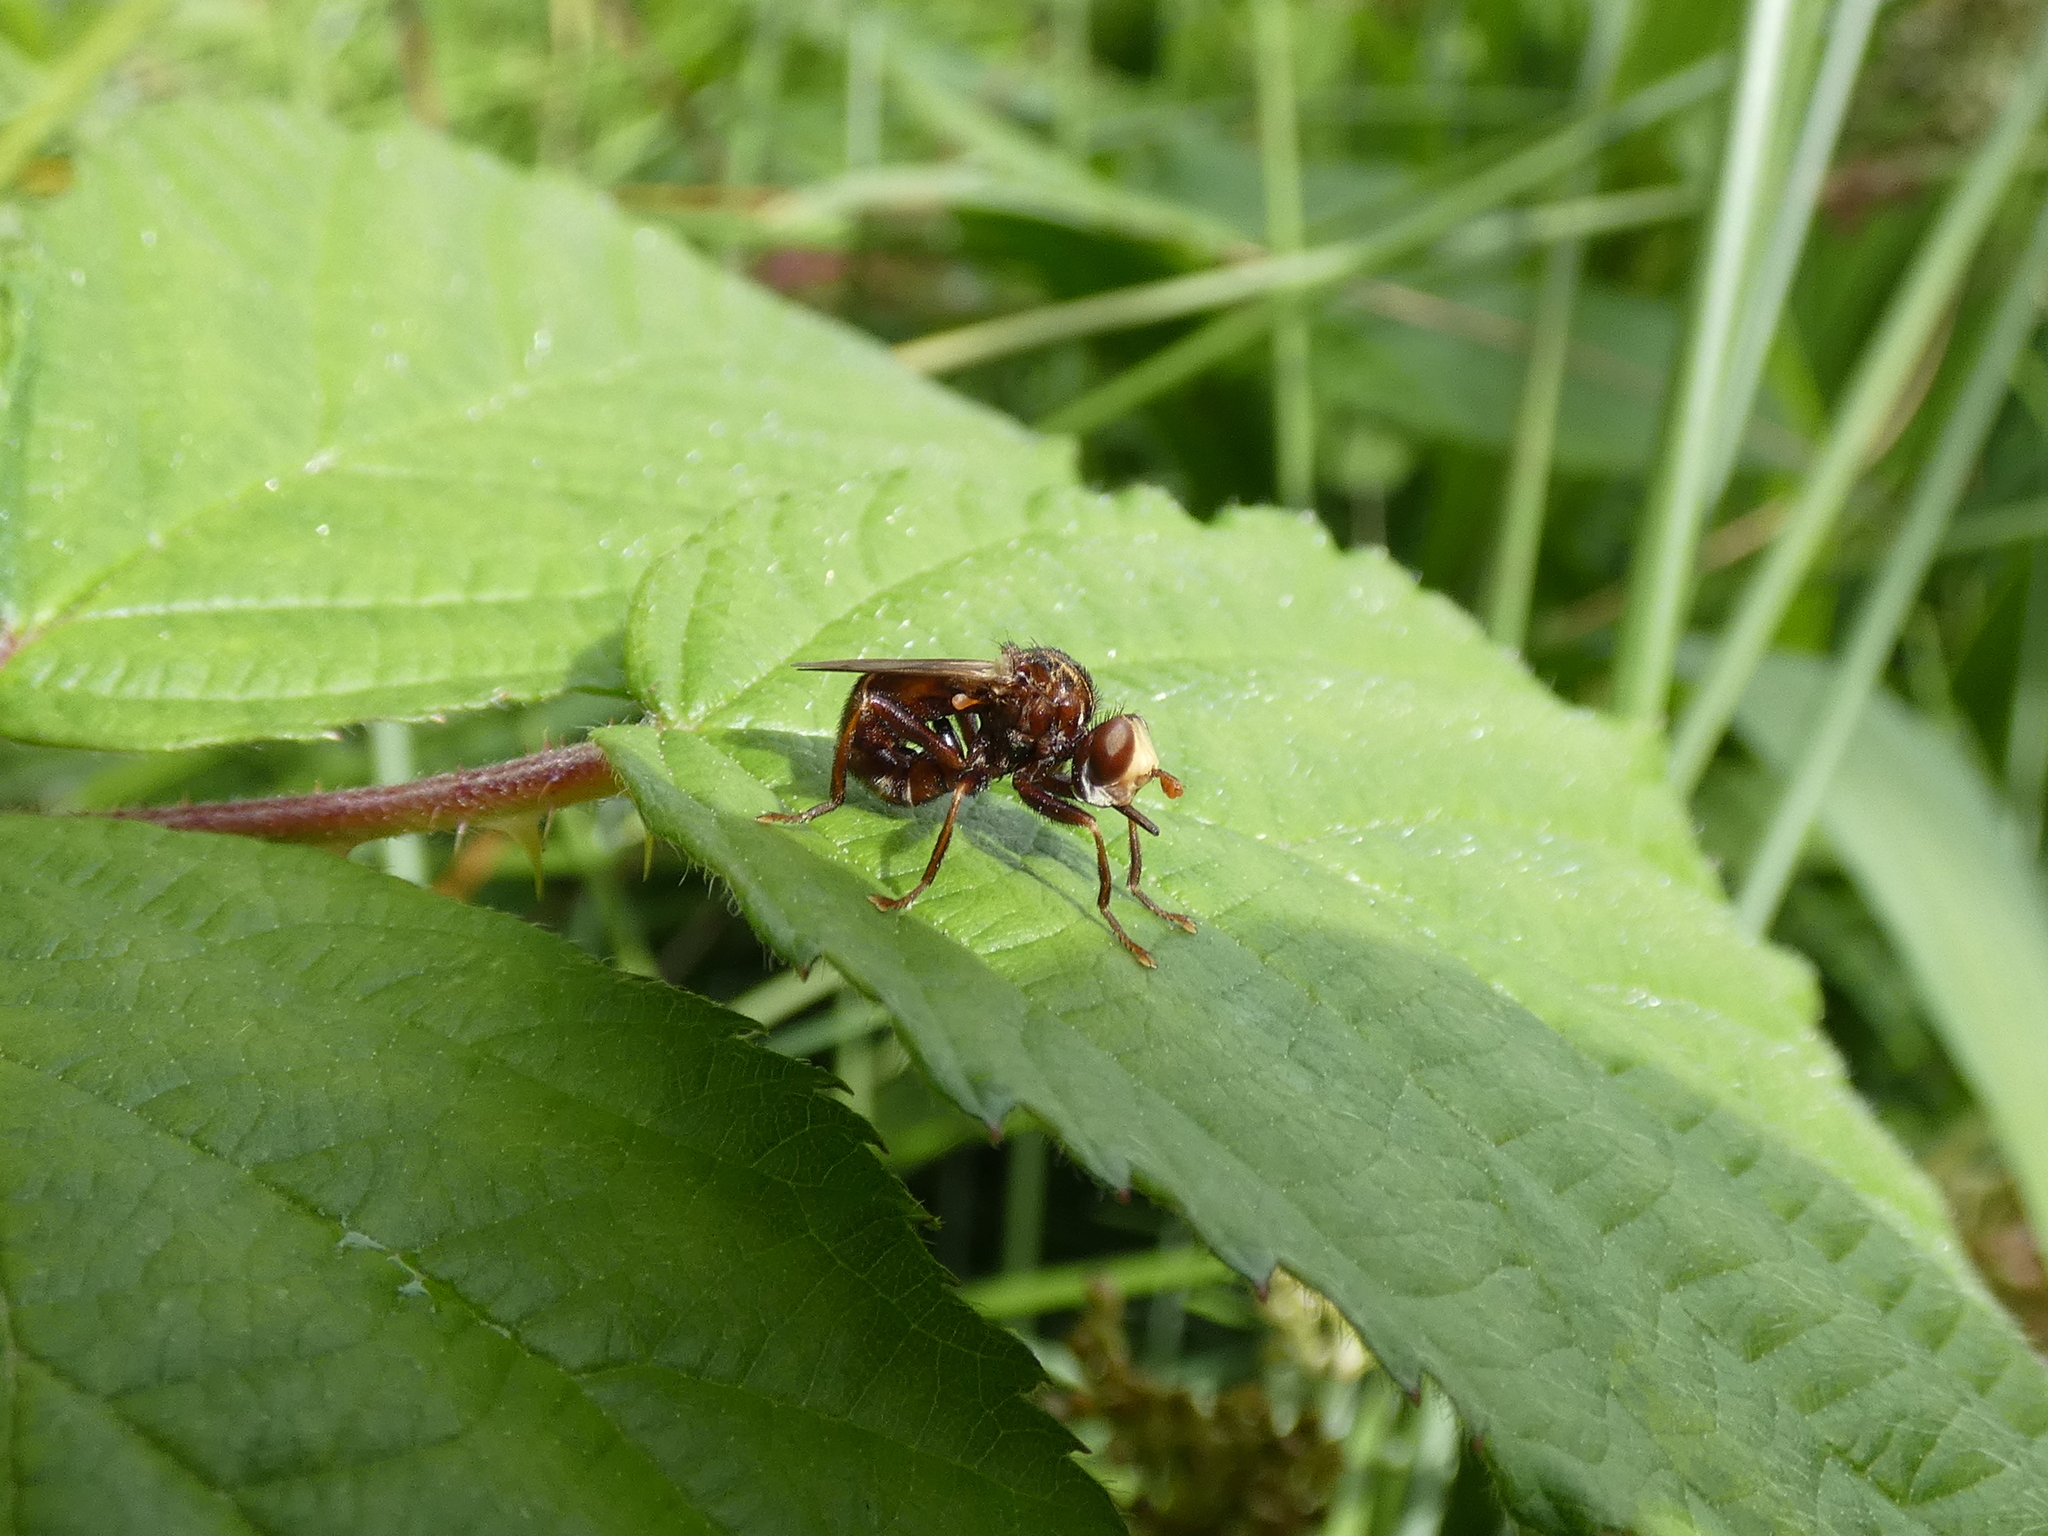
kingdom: Animalia
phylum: Arthropoda
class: Insecta
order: Diptera
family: Conopidae
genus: Sicus
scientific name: Sicus ferrugineus
